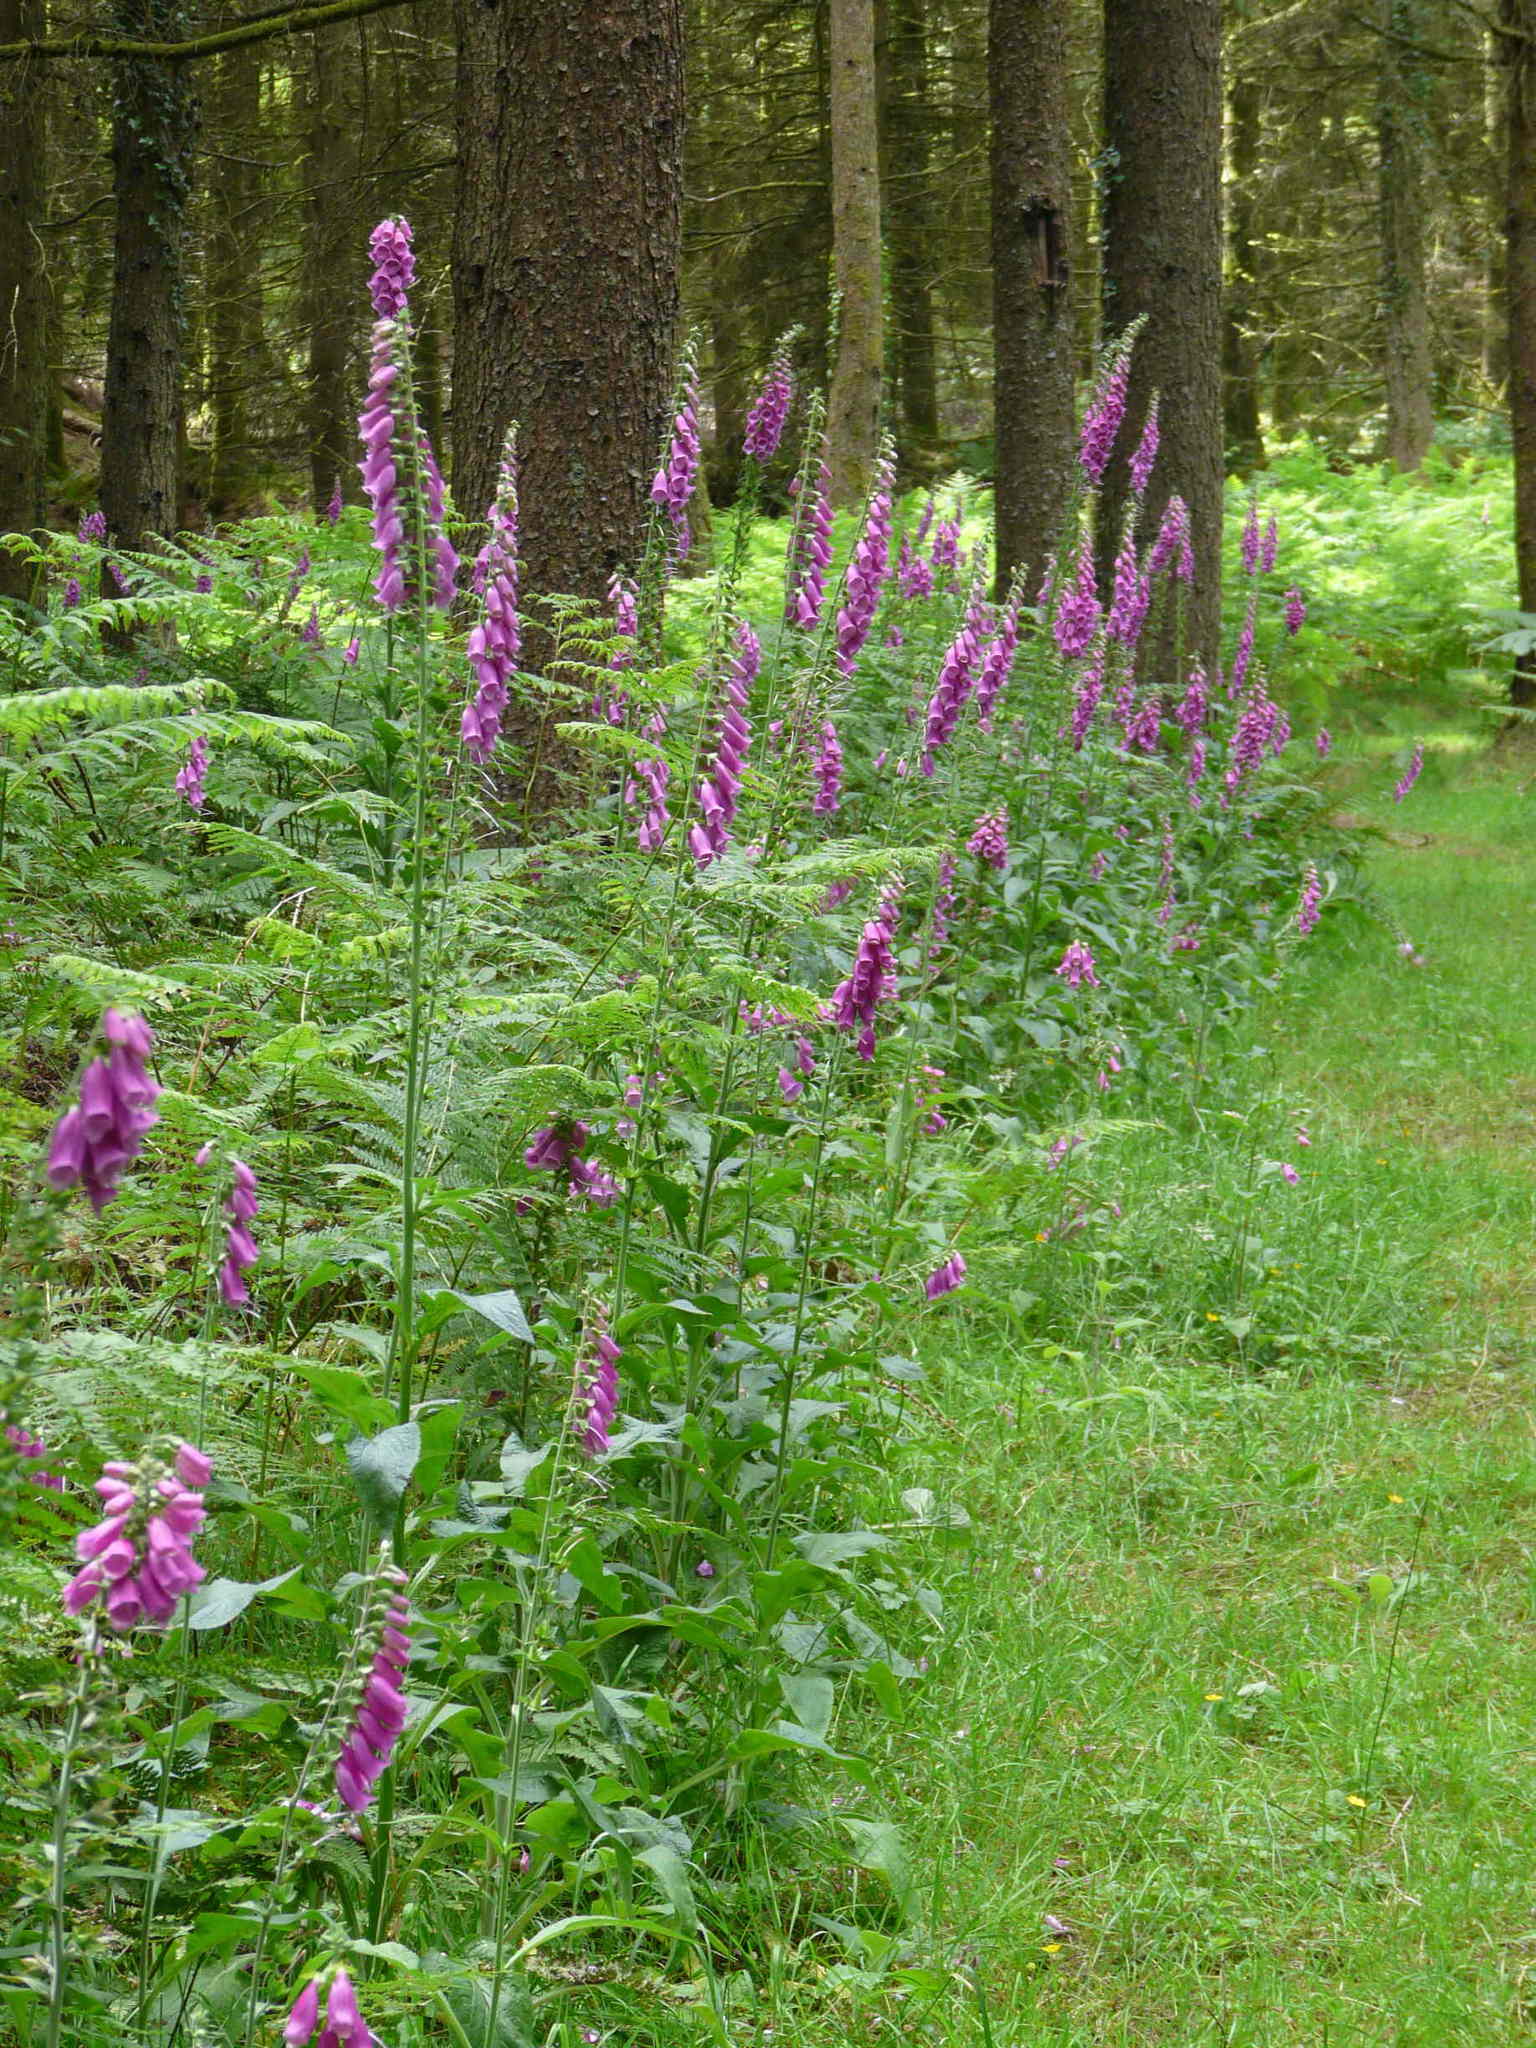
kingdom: Plantae
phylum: Tracheophyta
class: Magnoliopsida
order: Lamiales
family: Plantaginaceae
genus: Digitalis
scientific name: Digitalis purpurea
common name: Foxglove
